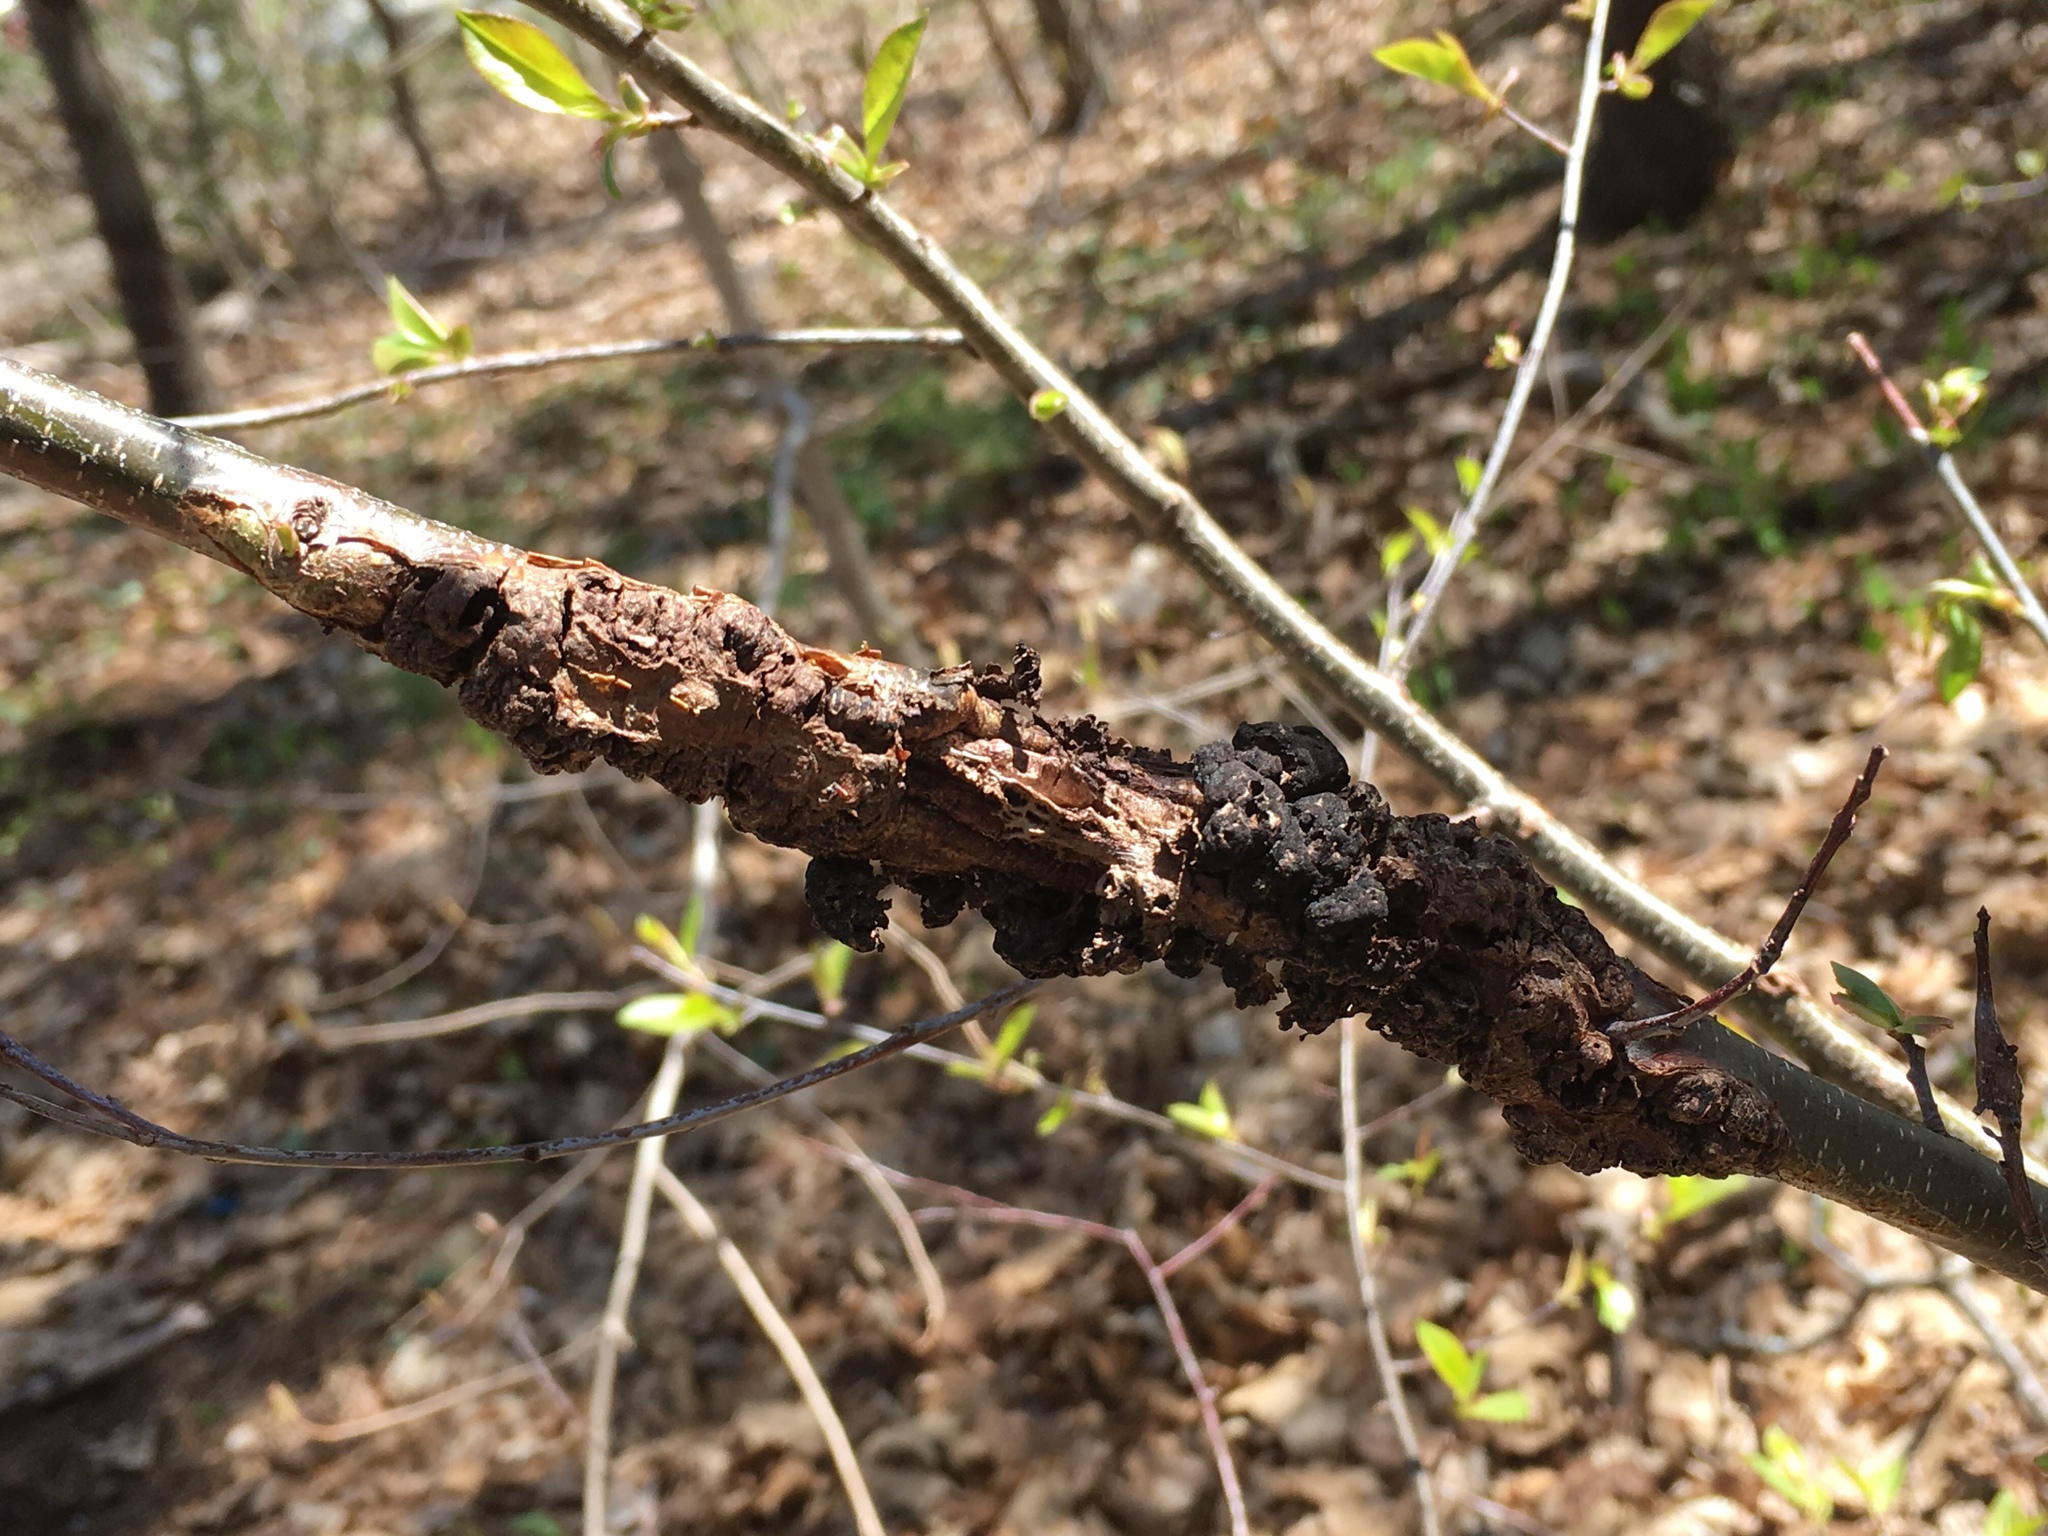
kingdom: Fungi
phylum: Ascomycota
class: Dothideomycetes
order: Venturiales
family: Venturiaceae
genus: Apiosporina
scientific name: Apiosporina morbosa
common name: Black knot
